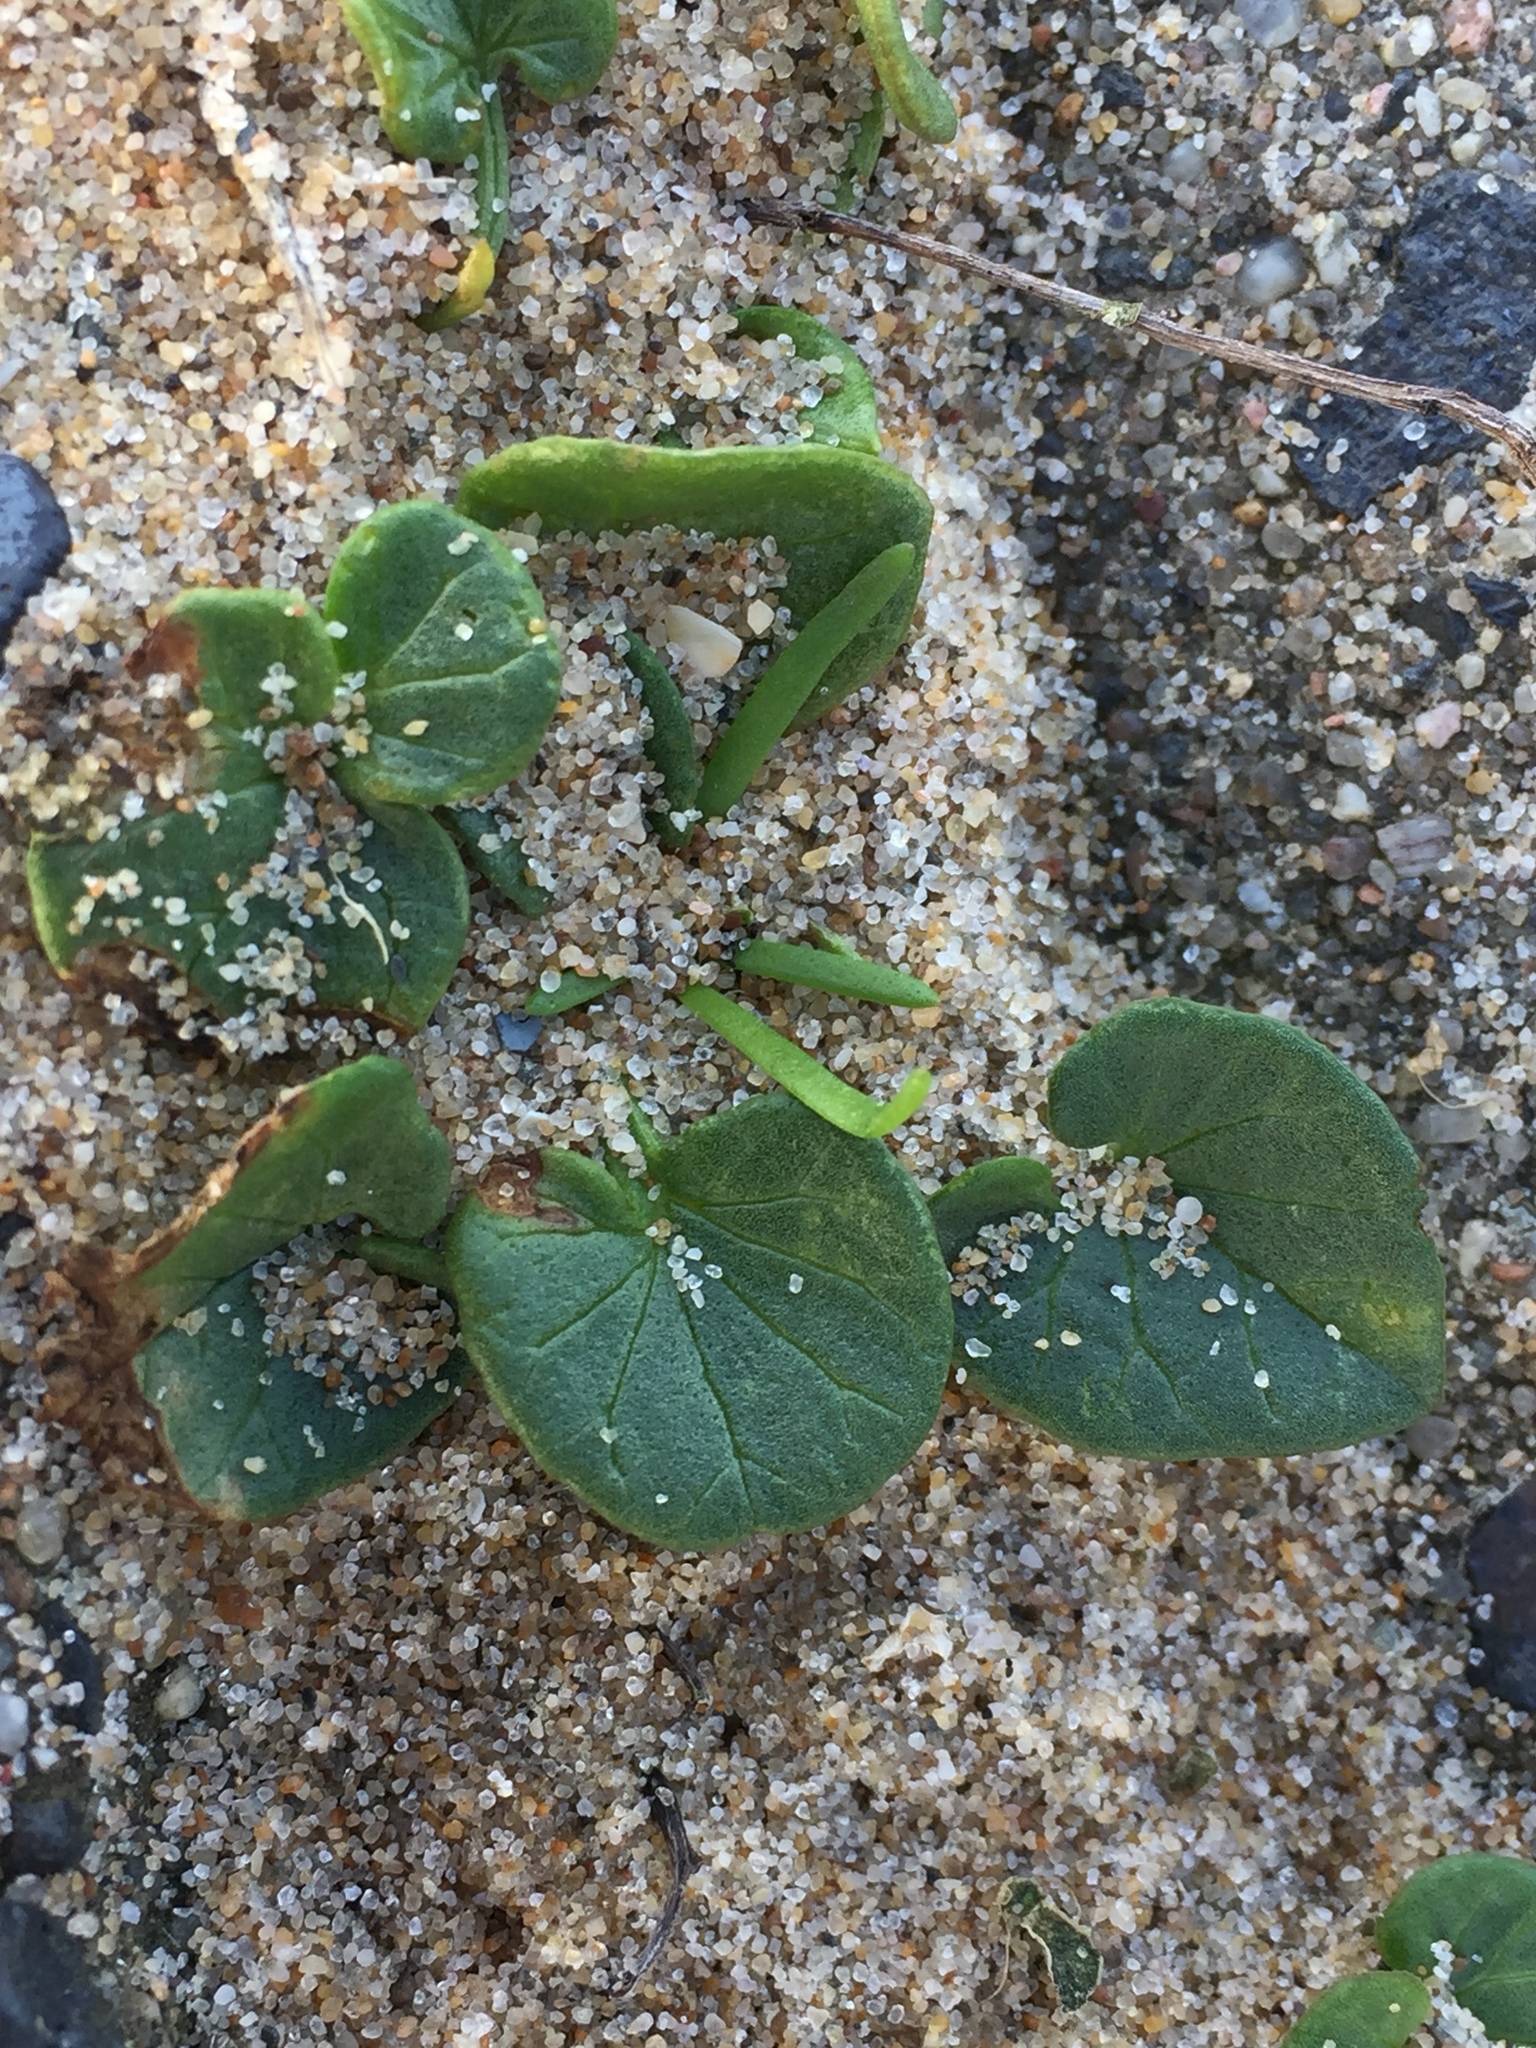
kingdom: Plantae
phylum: Tracheophyta
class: Magnoliopsida
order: Solanales
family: Convolvulaceae
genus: Calystegia
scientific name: Calystegia soldanella
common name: Sea bindweed
